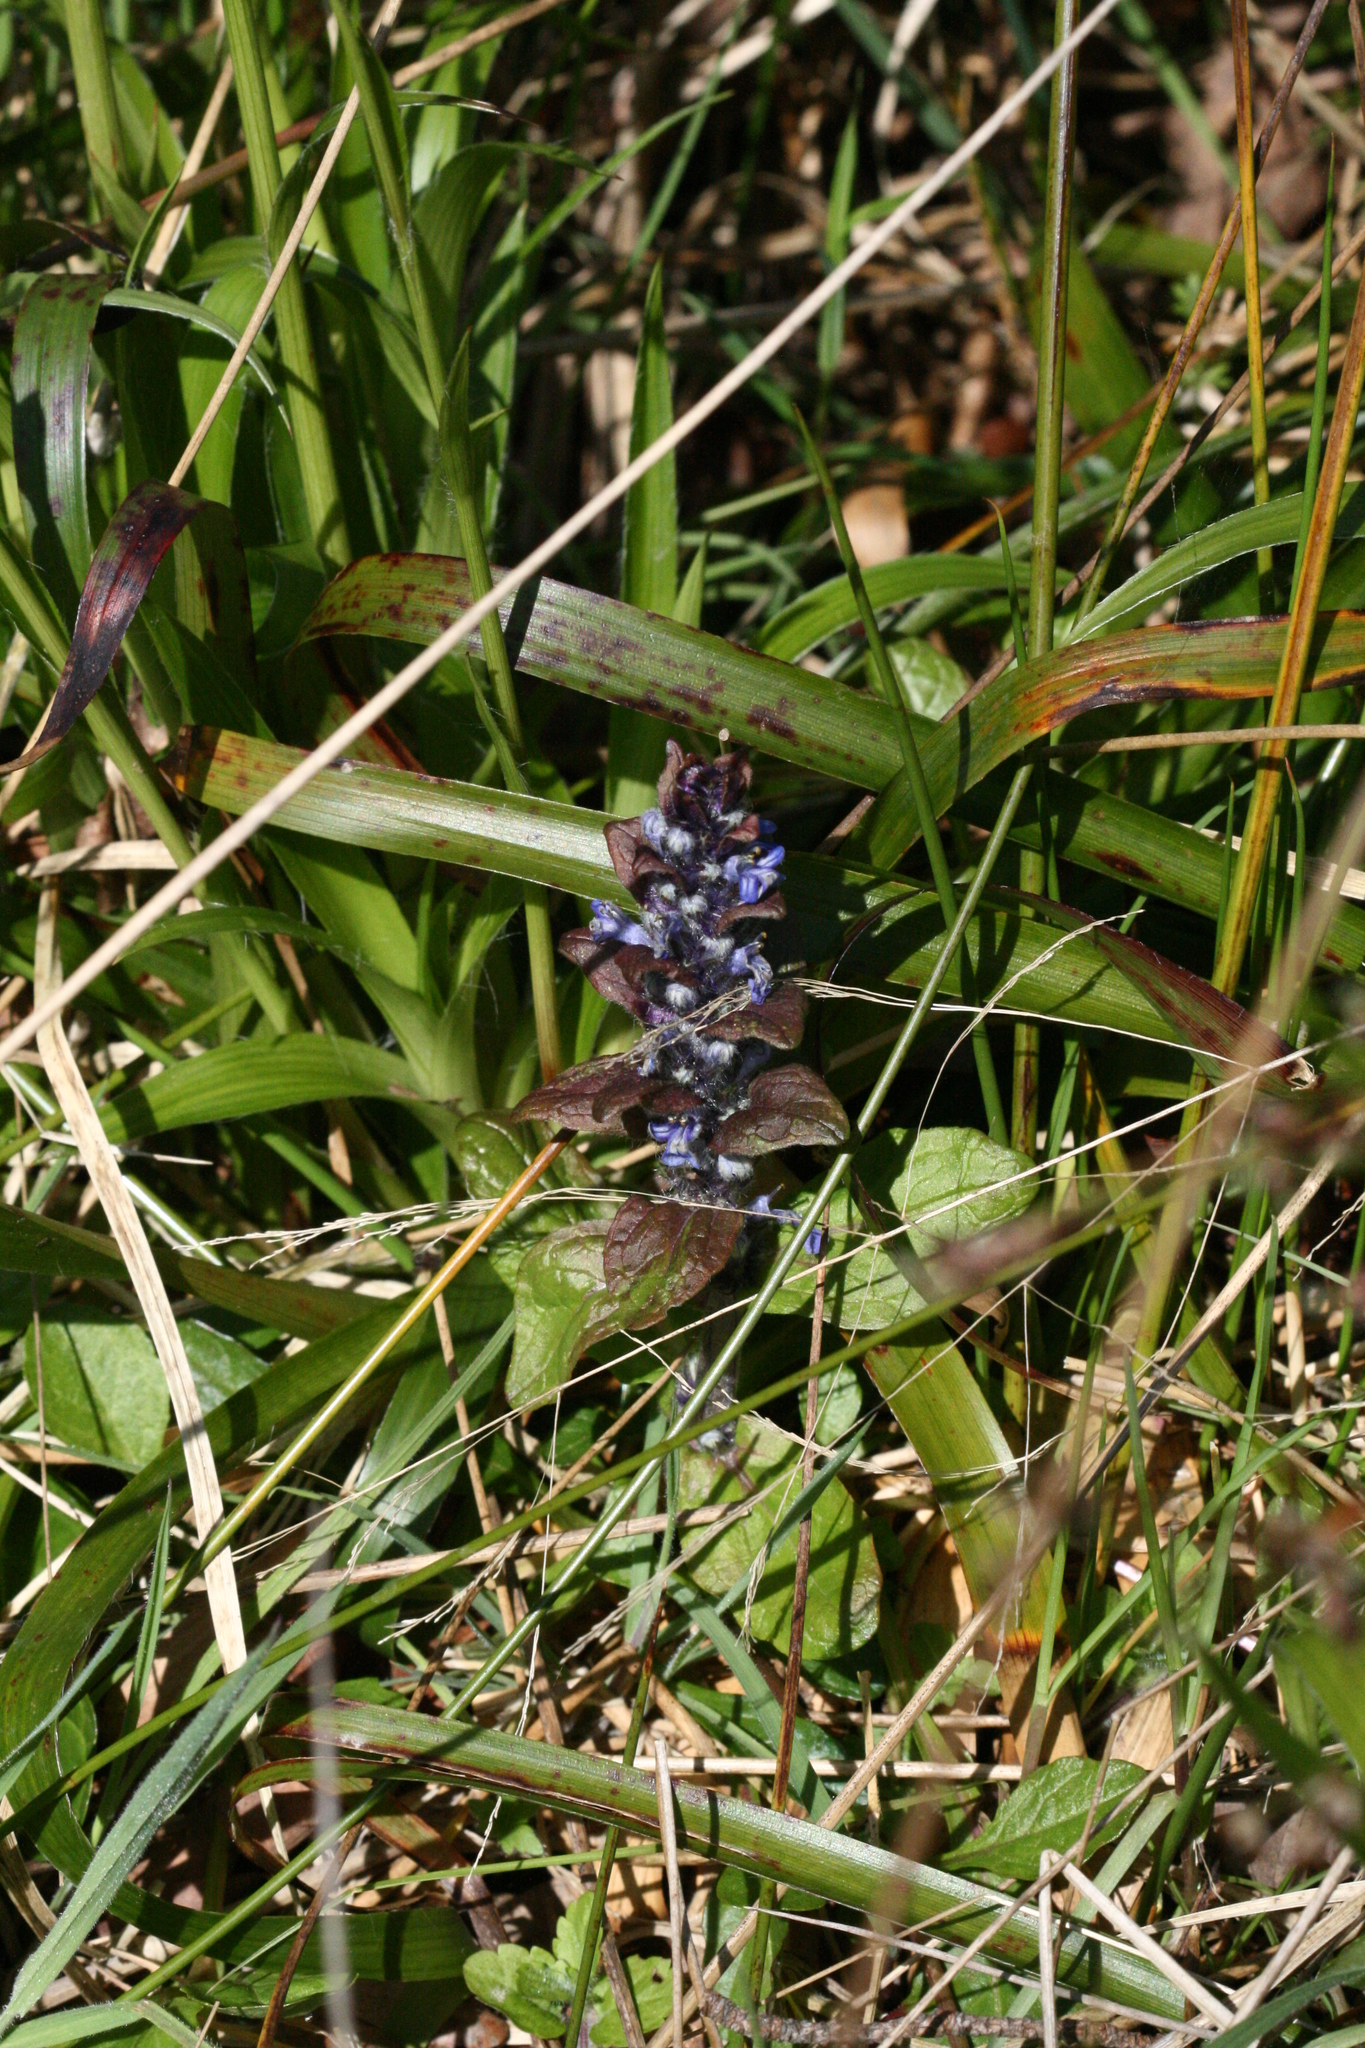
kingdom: Plantae
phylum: Tracheophyta
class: Magnoliopsida
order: Lamiales
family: Lamiaceae
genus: Ajuga
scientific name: Ajuga reptans
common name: Bugle
